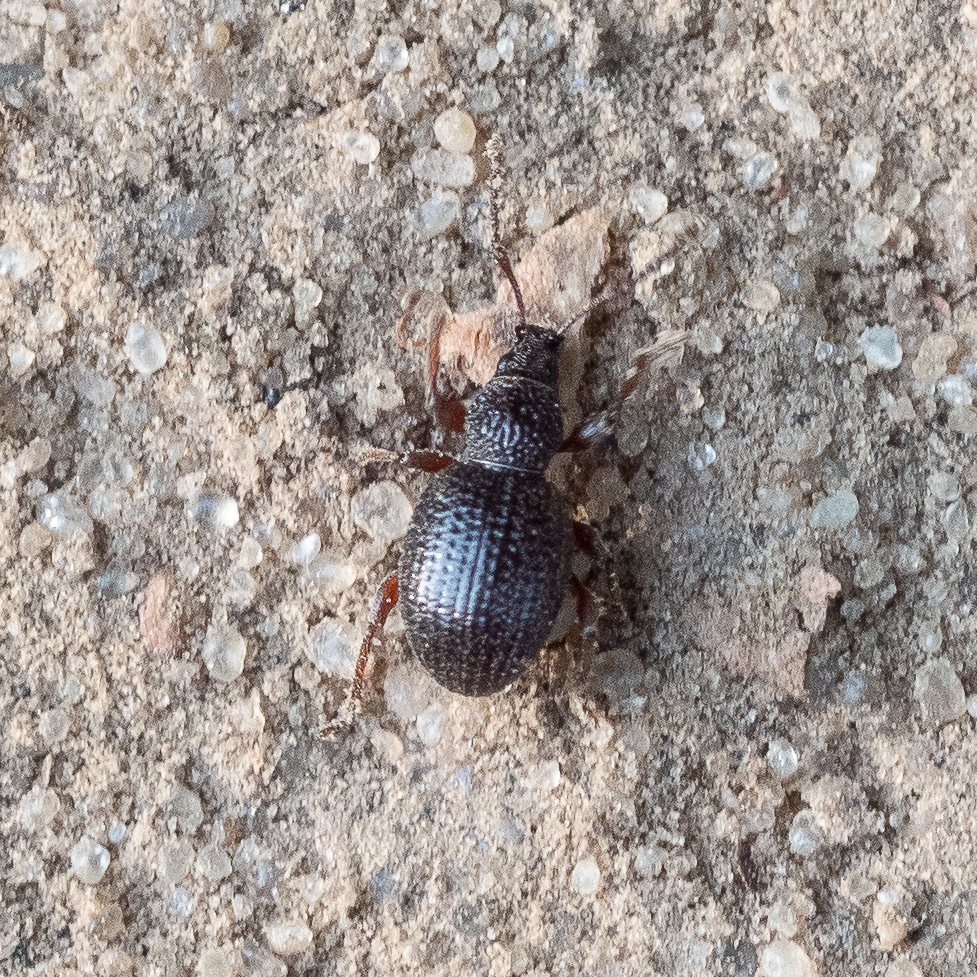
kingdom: Animalia
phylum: Arthropoda
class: Insecta
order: Coleoptera
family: Curculionidae
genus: Otiorhynchus
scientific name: Otiorhynchus ovatus
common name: Strawberry root weevil
